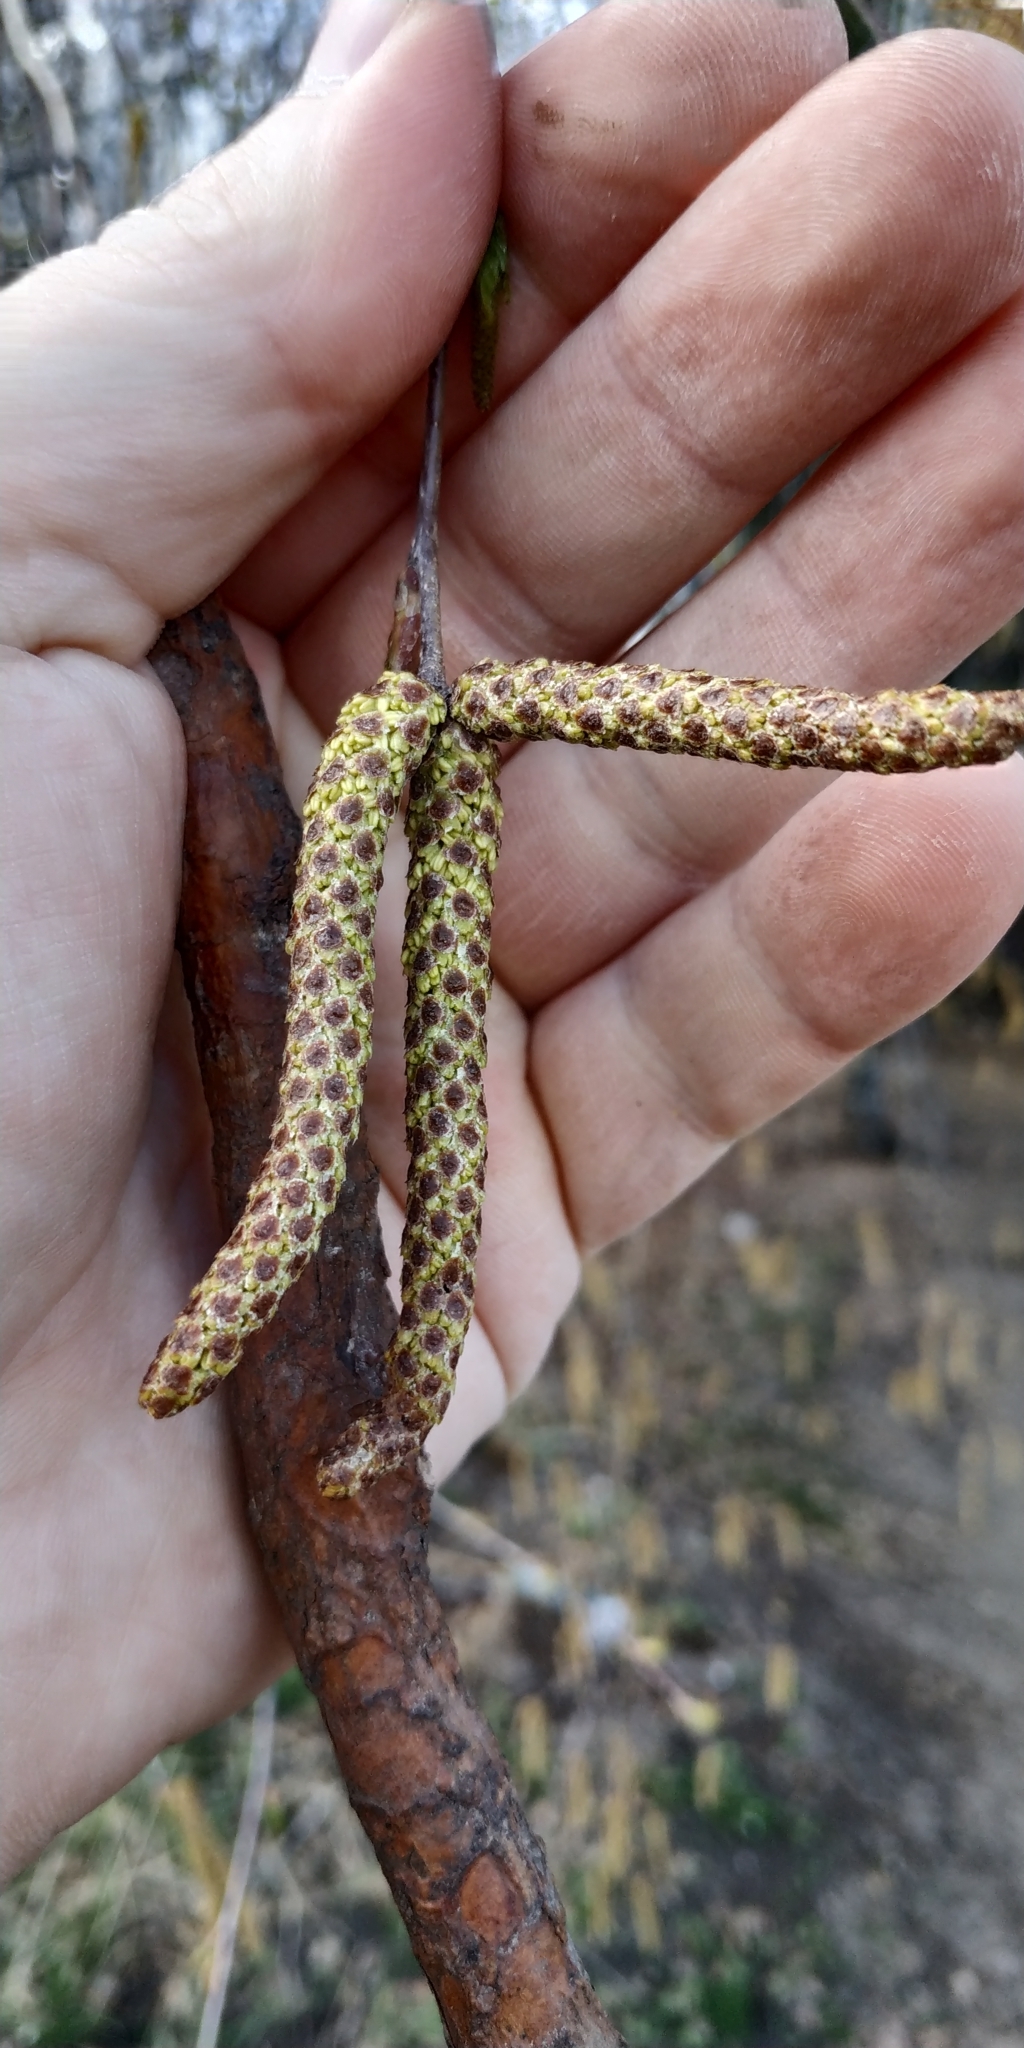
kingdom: Plantae
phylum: Tracheophyta
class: Magnoliopsida
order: Fagales
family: Betulaceae
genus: Betula
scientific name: Betula pendula
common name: Silver birch
